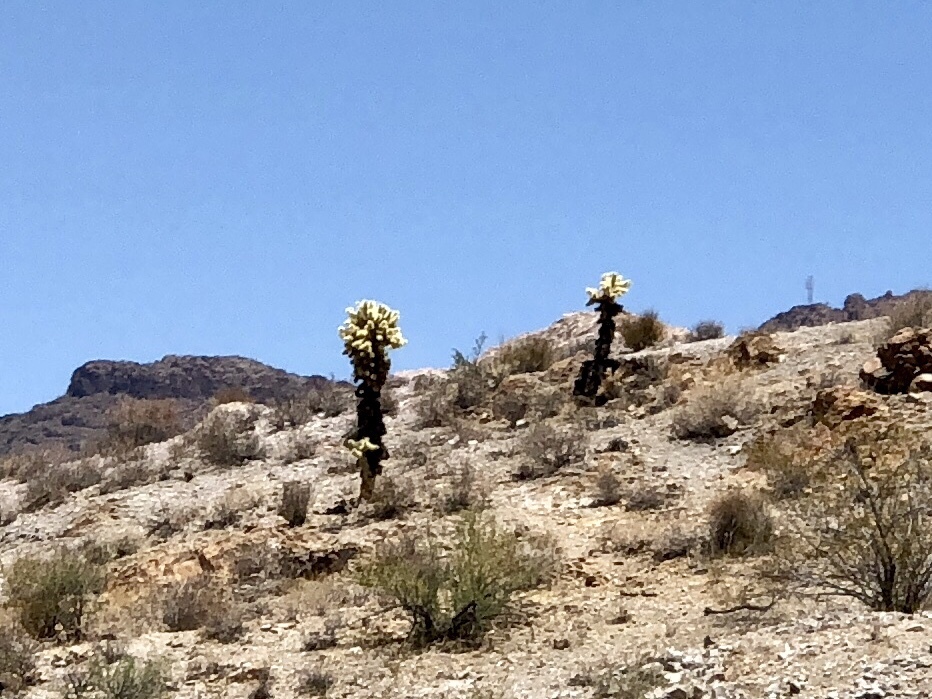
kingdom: Plantae
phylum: Tracheophyta
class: Magnoliopsida
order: Caryophyllales
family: Cactaceae
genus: Cylindropuntia
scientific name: Cylindropuntia fosbergii
